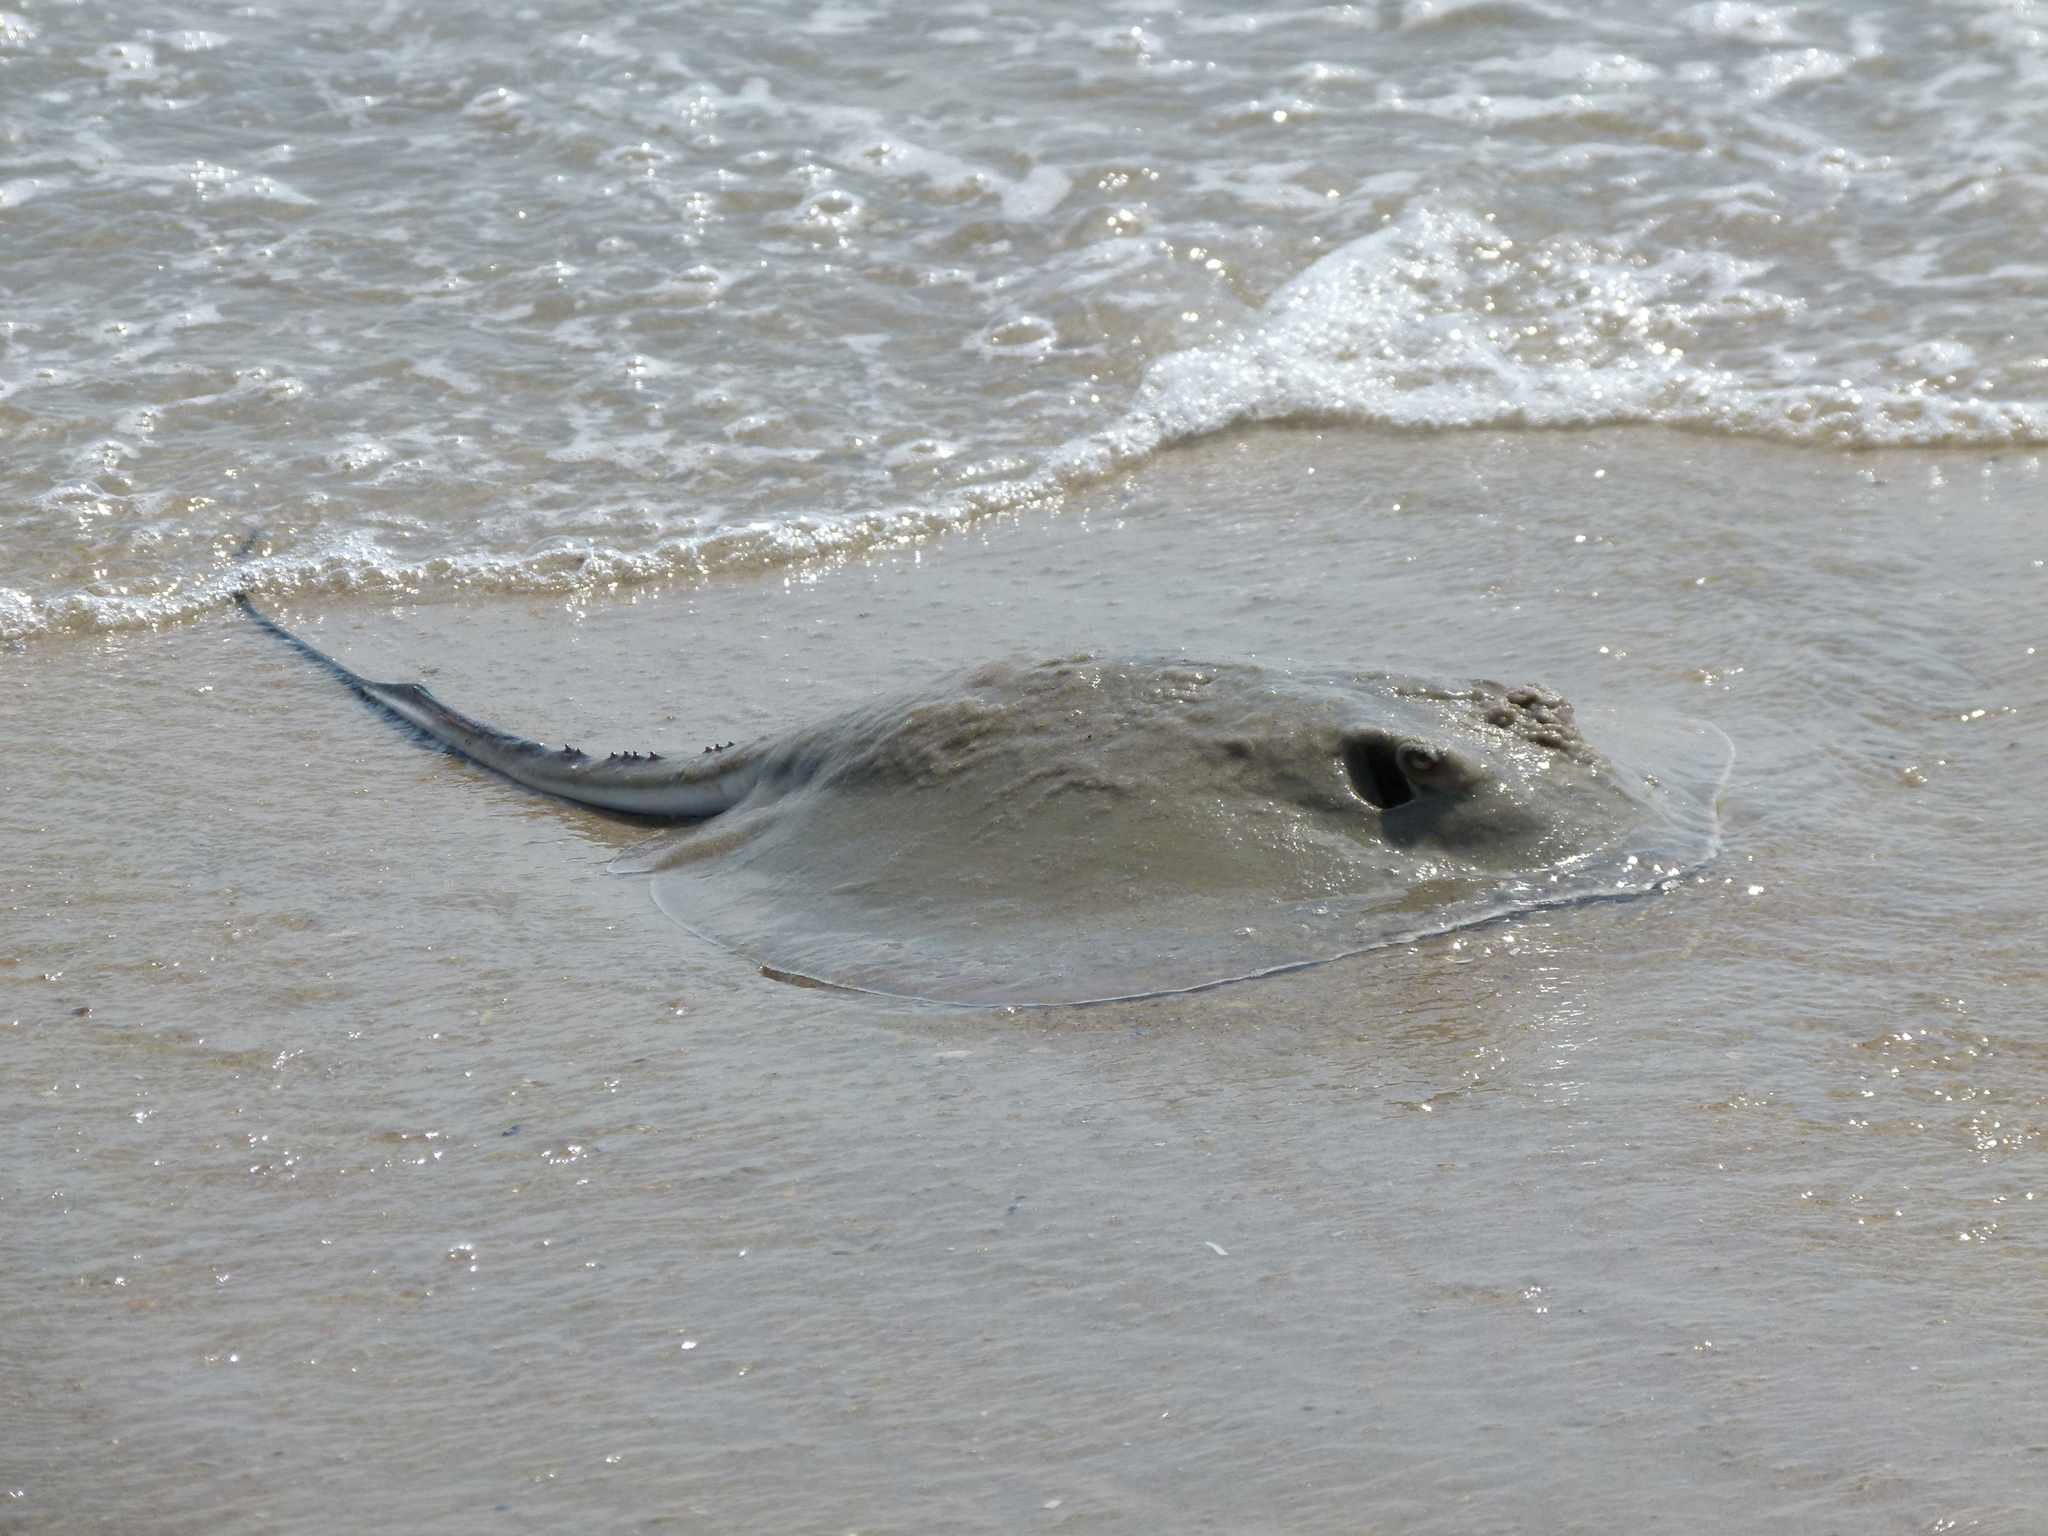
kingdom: Animalia
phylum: Chordata
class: Elasmobranchii
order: Myliobatiformes
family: Dasyatidae
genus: Hypanus
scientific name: Hypanus
